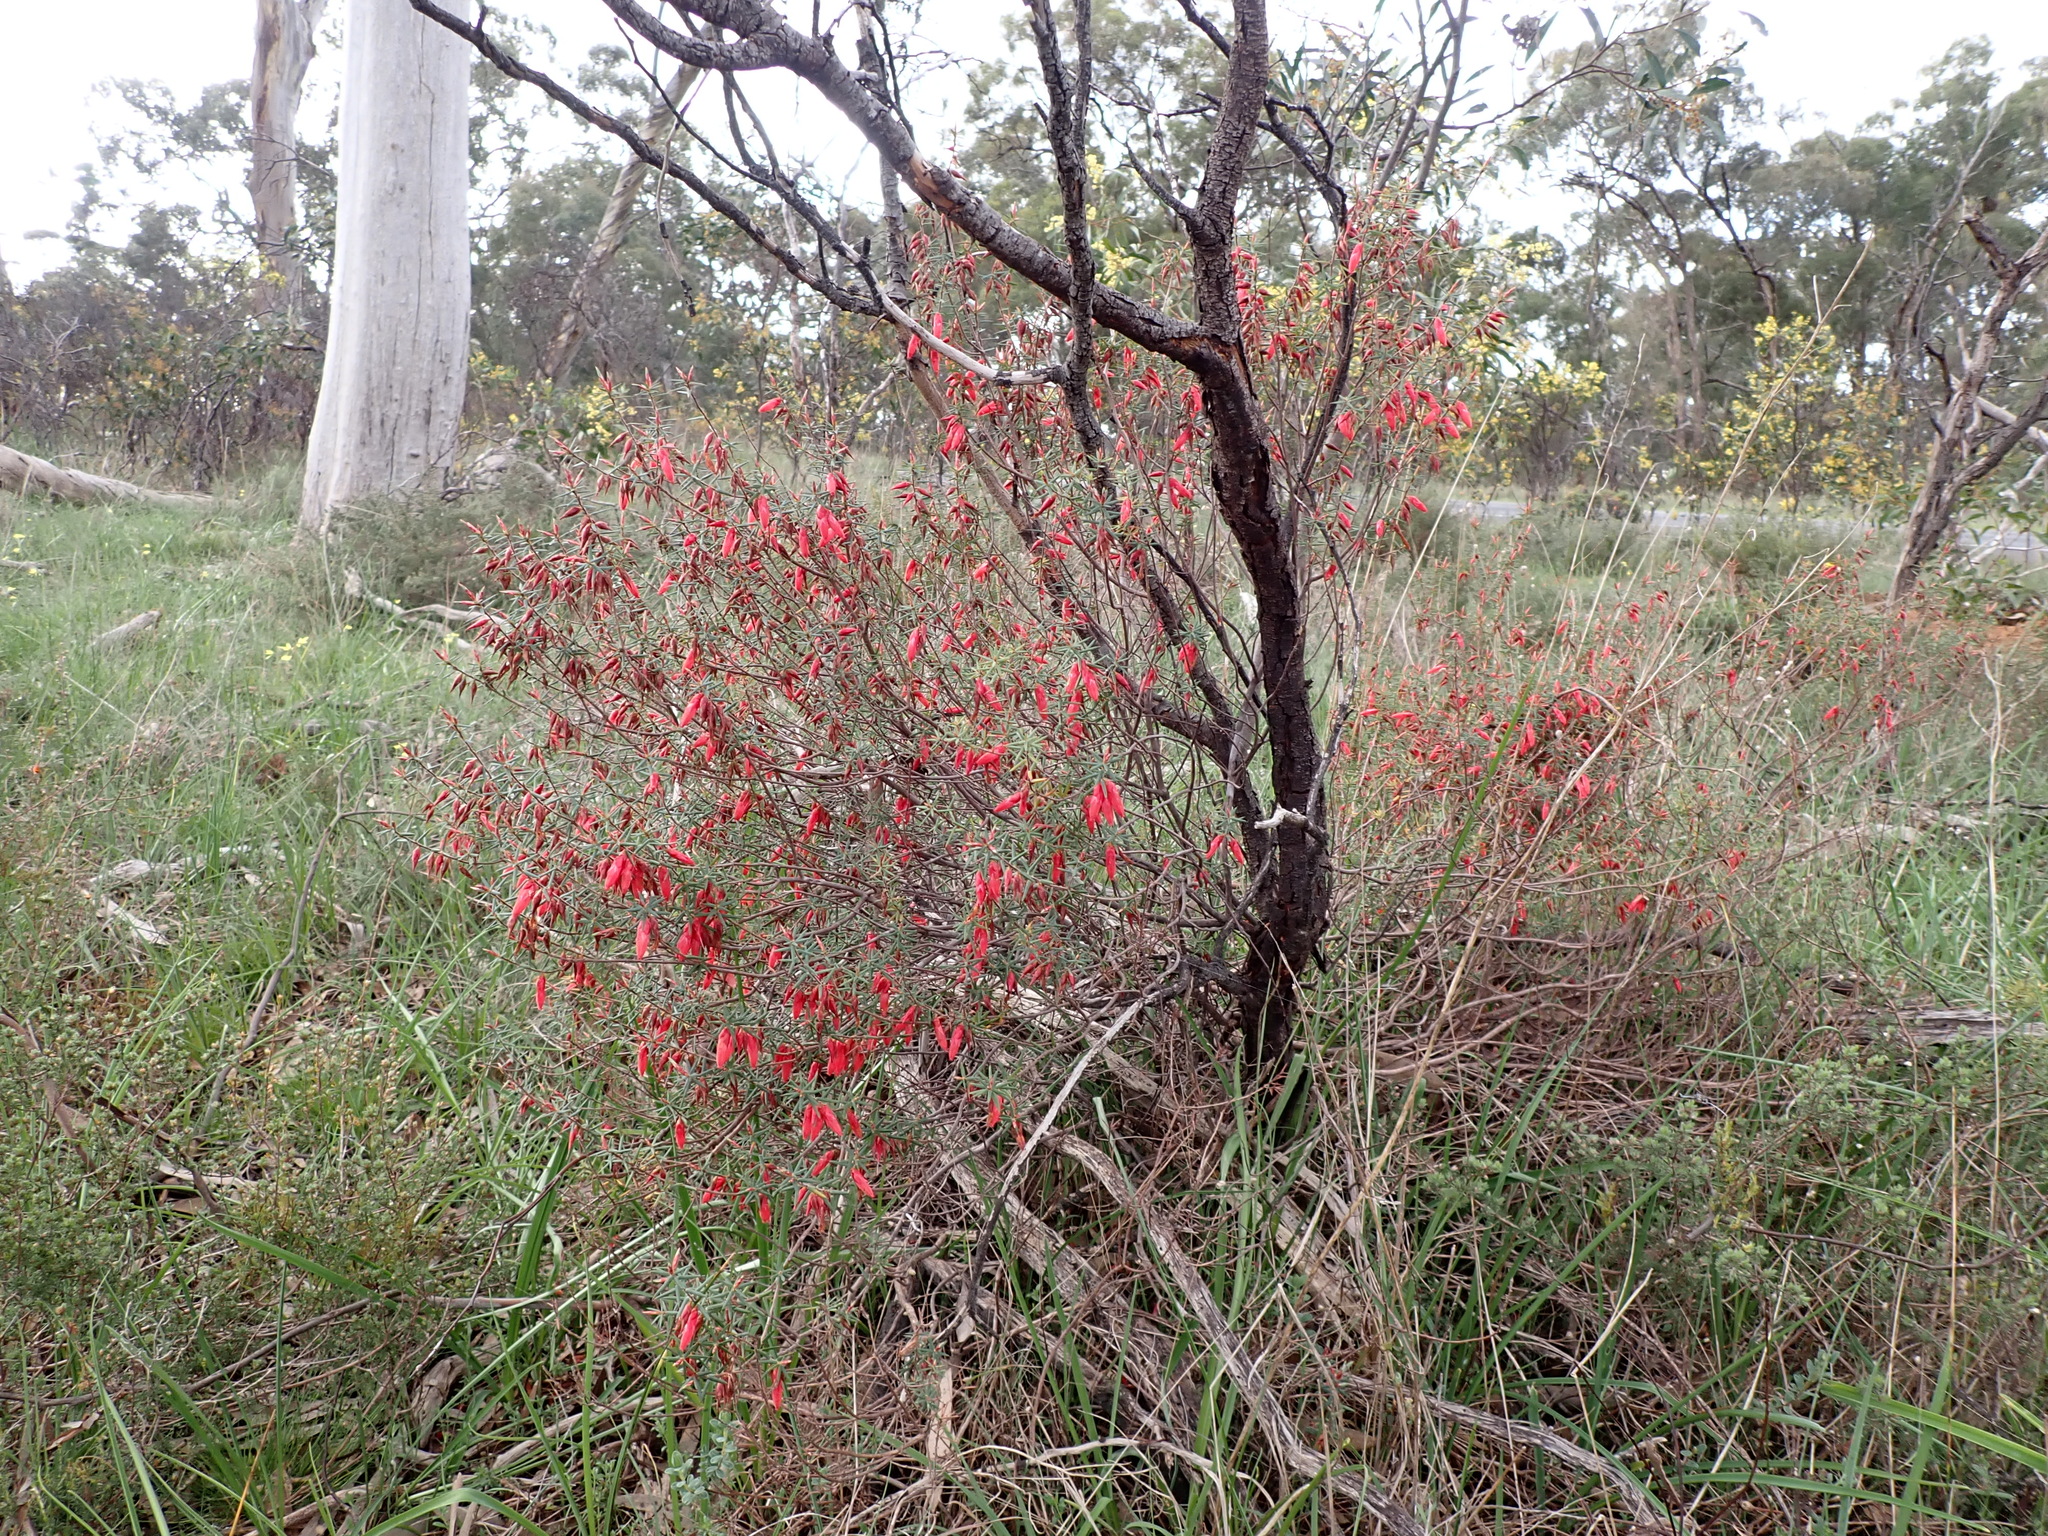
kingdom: Plantae
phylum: Tracheophyta
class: Magnoliopsida
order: Ericales
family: Ericaceae
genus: Stenanthera
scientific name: Stenanthera conostephioides
